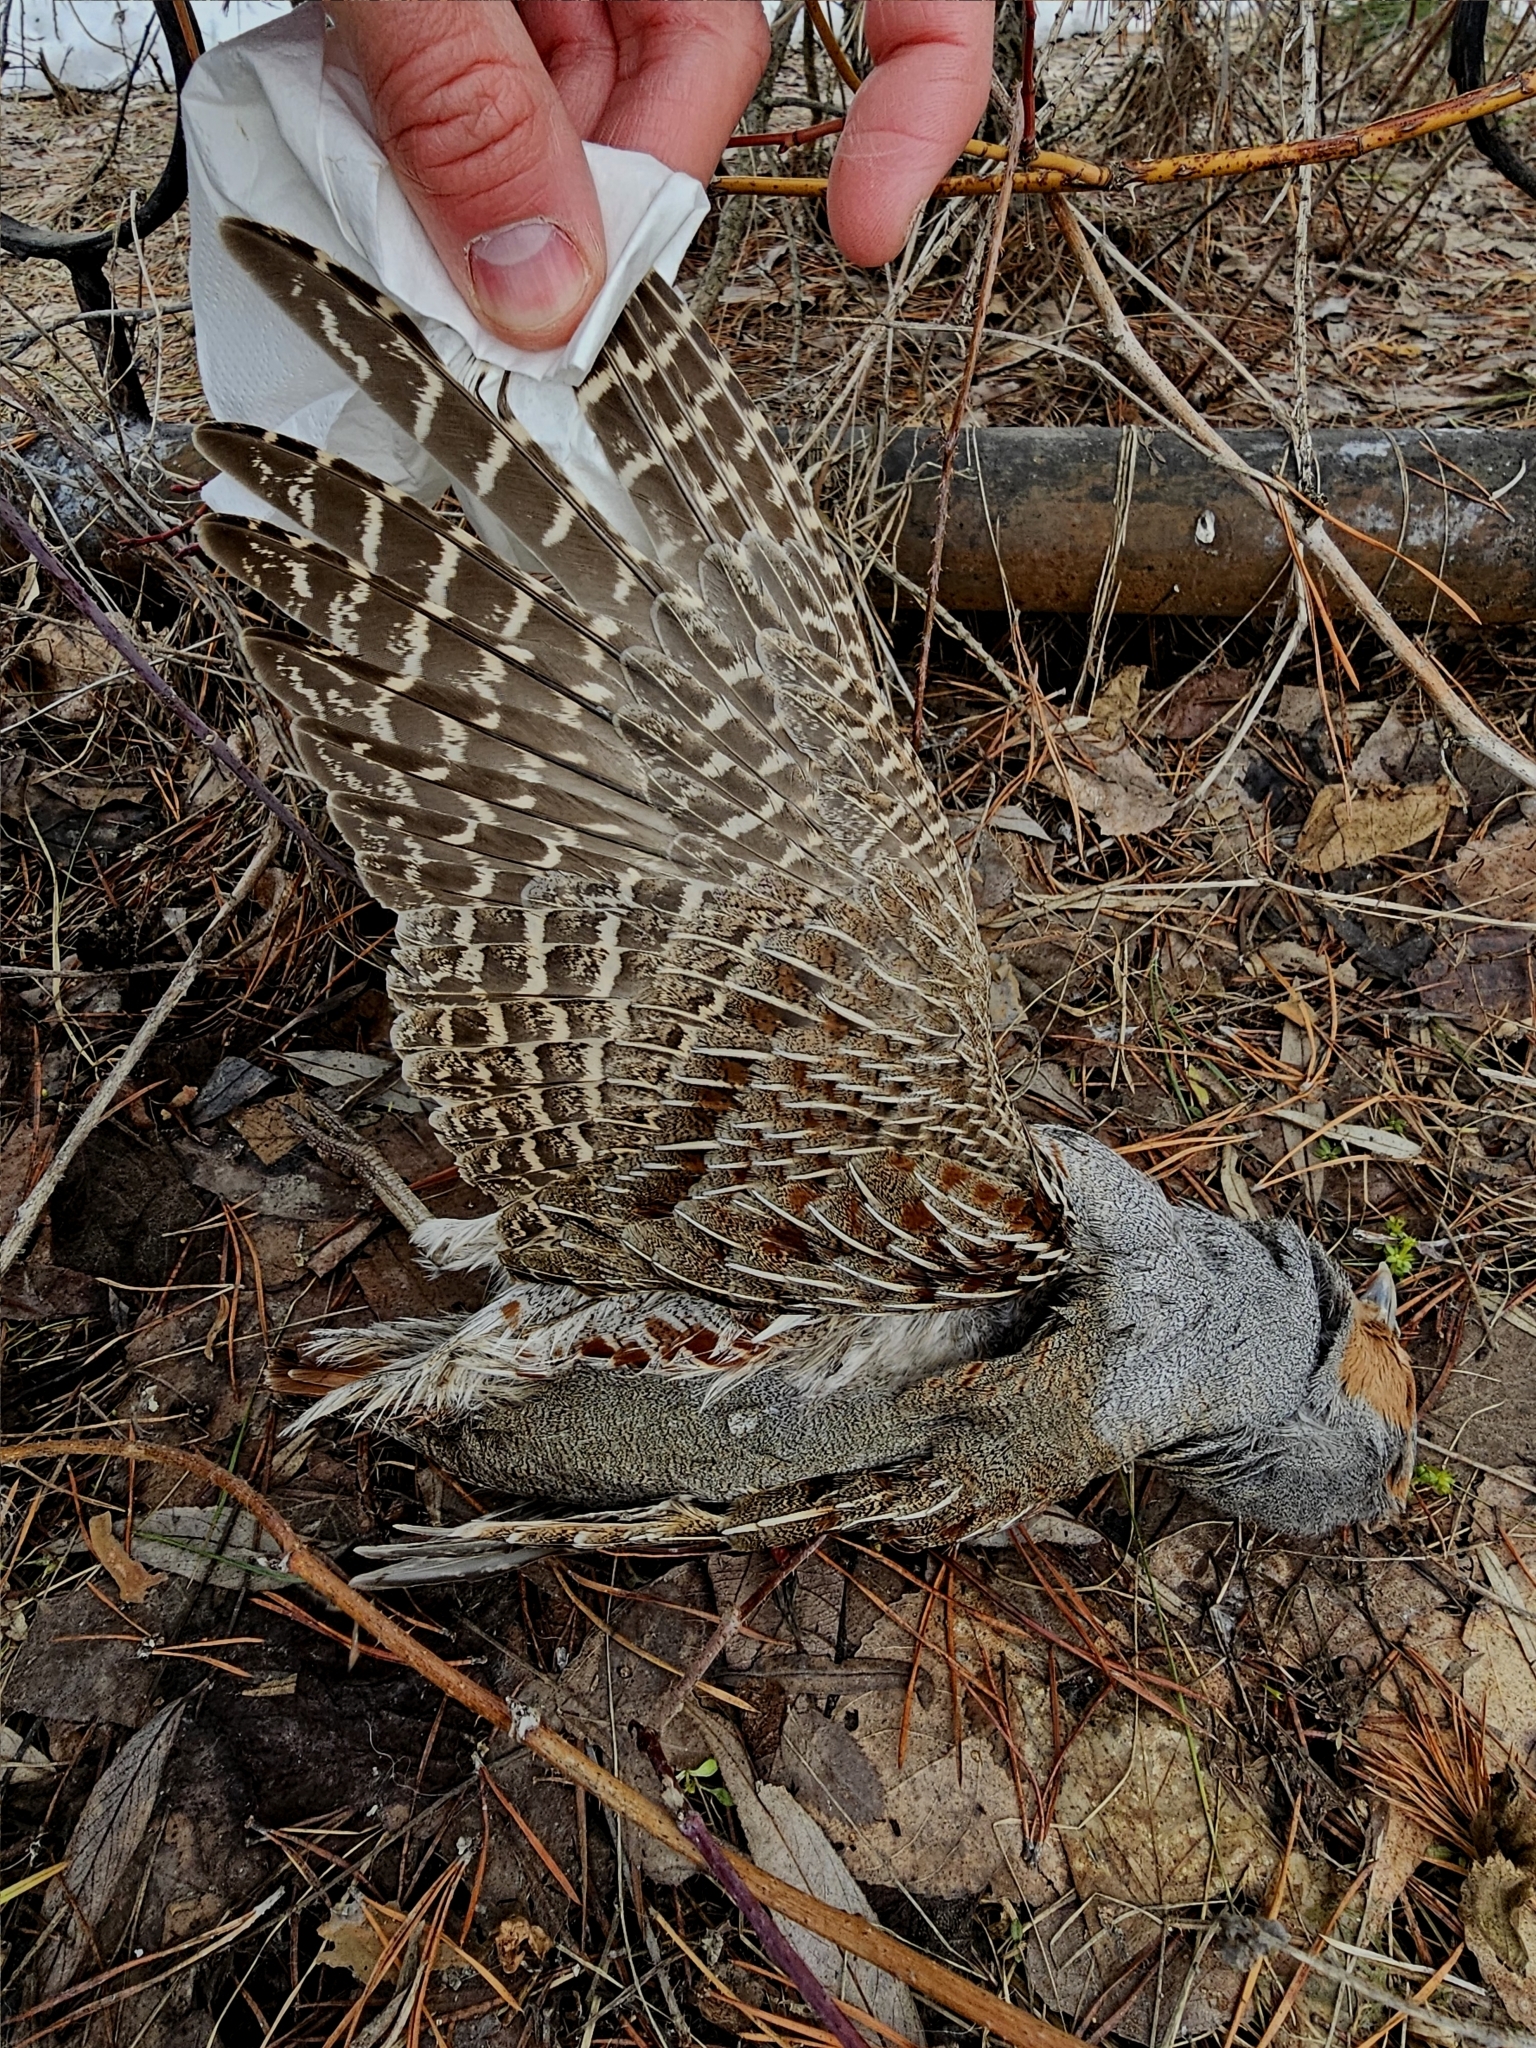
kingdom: Animalia
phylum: Chordata
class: Aves
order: Galliformes
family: Phasianidae
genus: Perdix
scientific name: Perdix perdix
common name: Grey partridge
